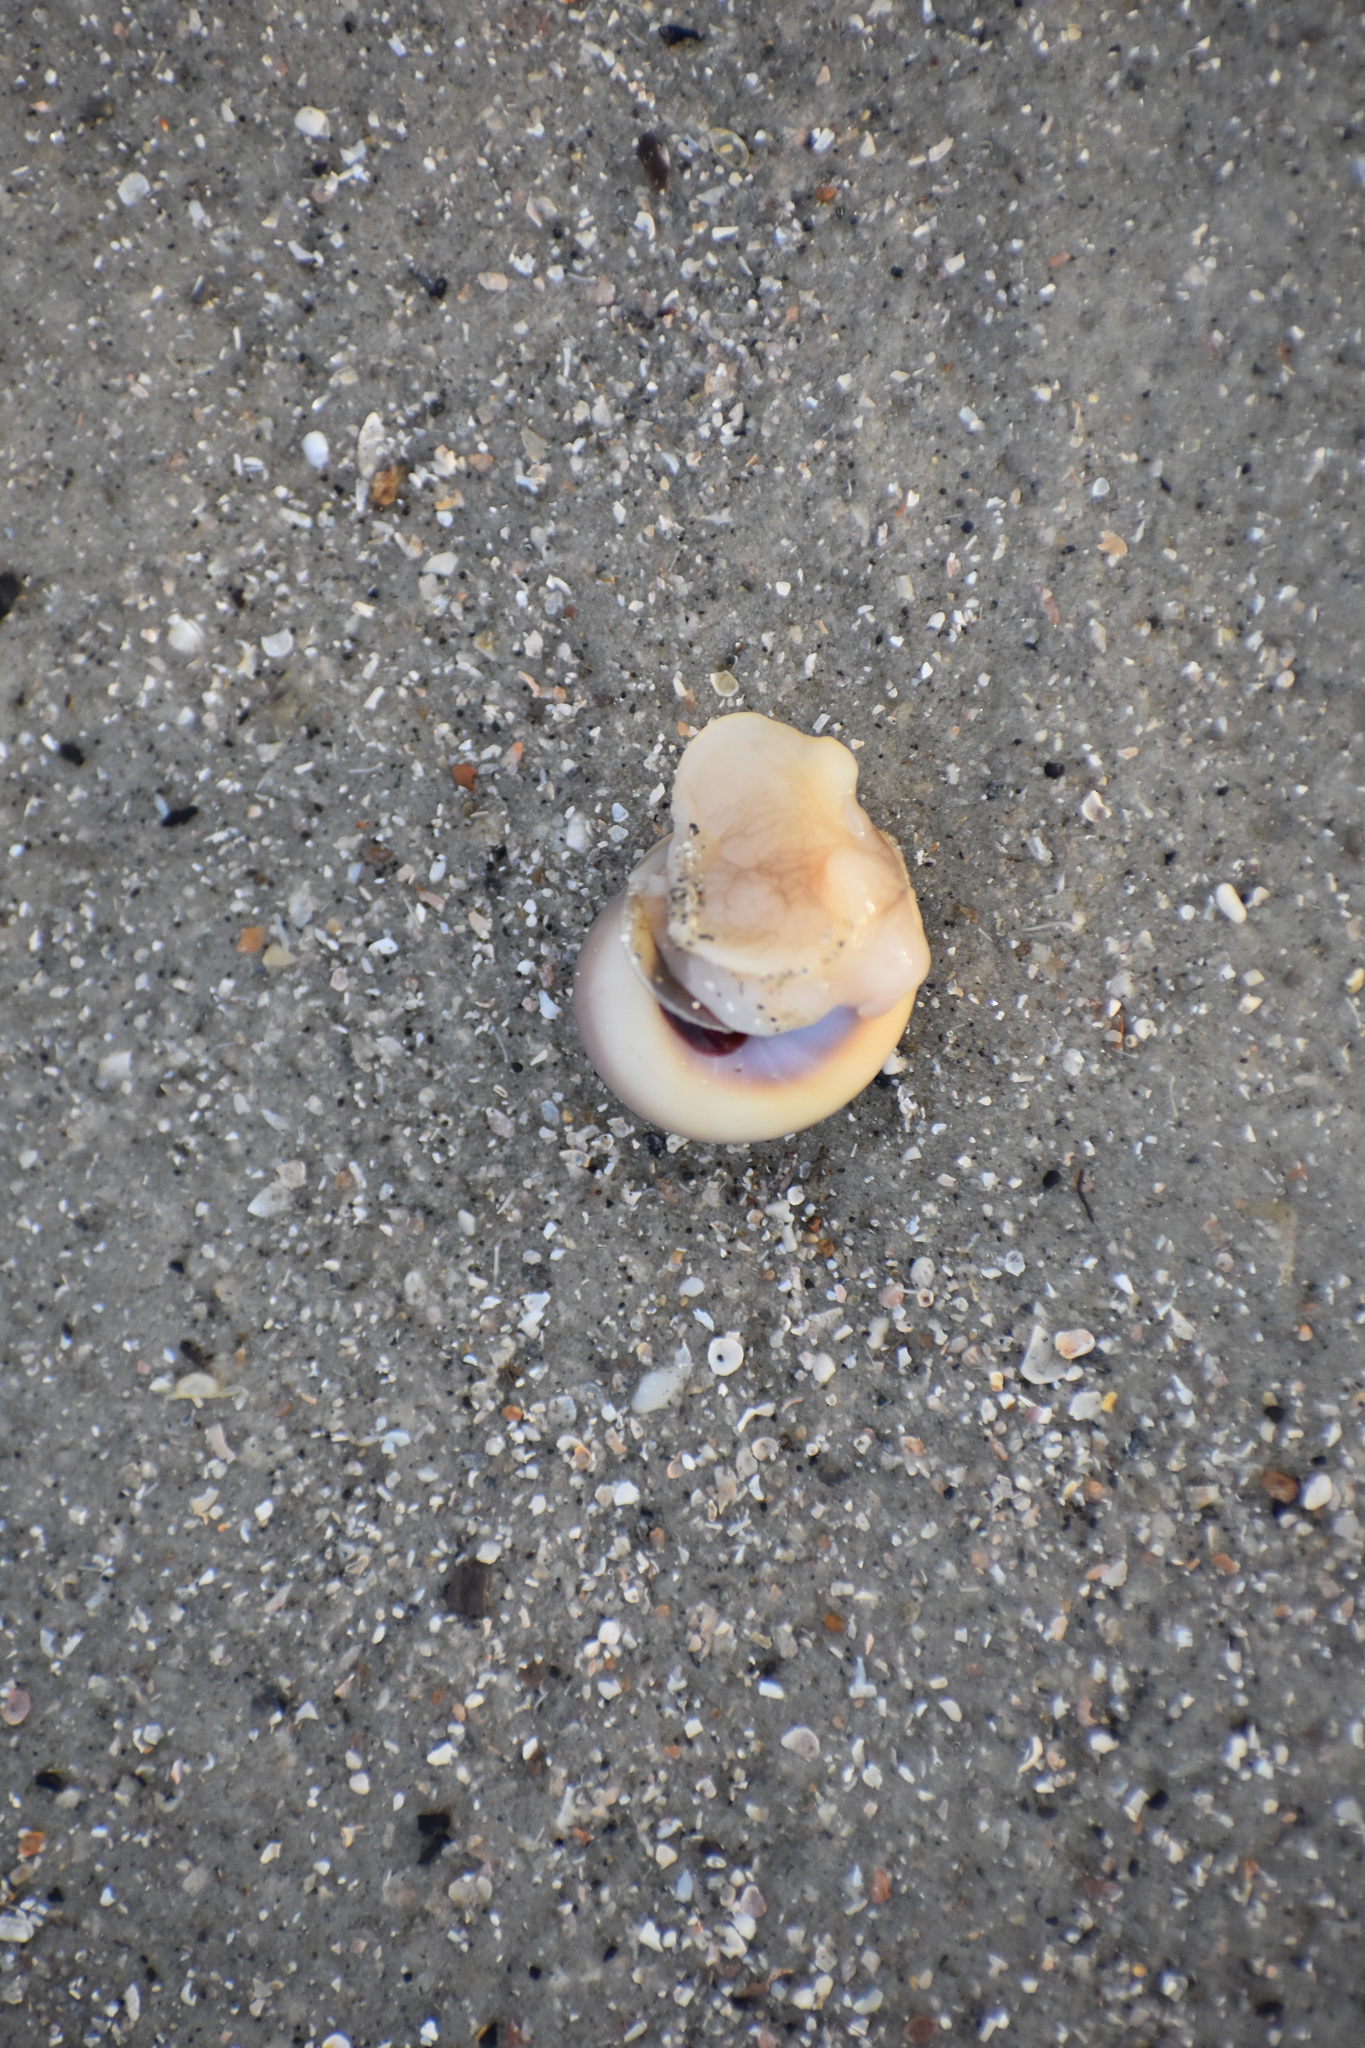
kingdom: Animalia
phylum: Mollusca
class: Gastropoda
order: Littorinimorpha
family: Naticidae
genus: Neverita
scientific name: Neverita duplicata
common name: Lobed moonsnail
